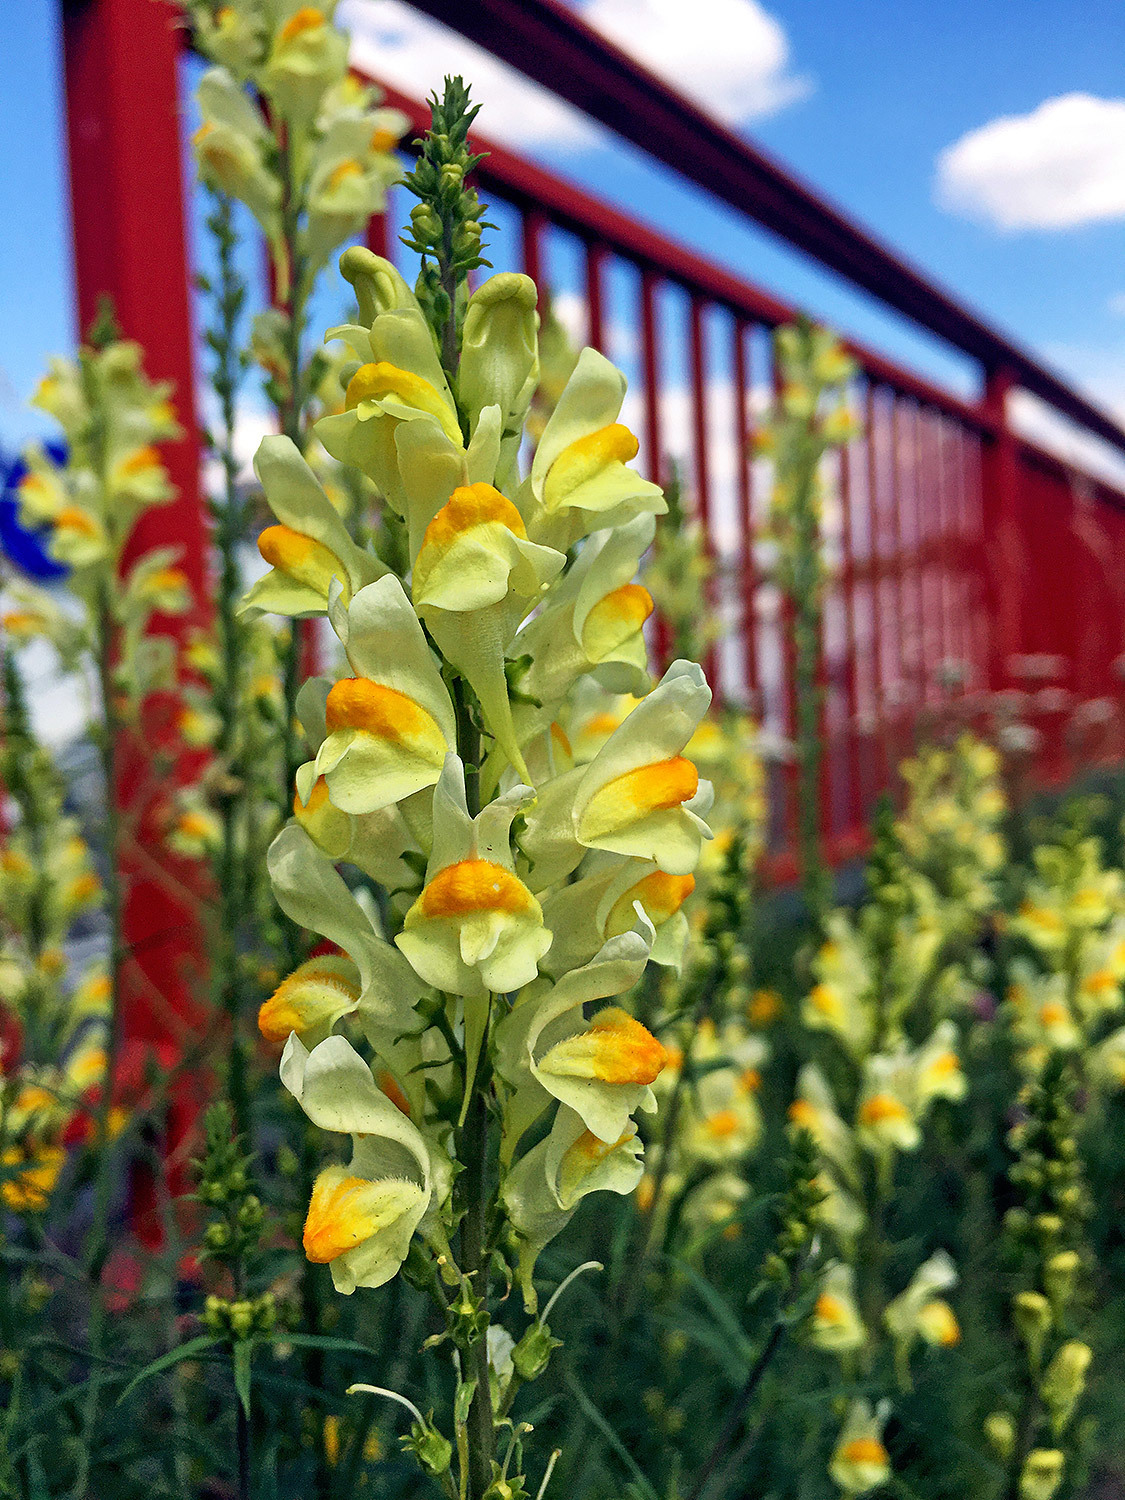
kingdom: Plantae
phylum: Tracheophyta
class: Magnoliopsida
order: Lamiales
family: Plantaginaceae
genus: Linaria
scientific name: Linaria vulgaris
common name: Butter and eggs
